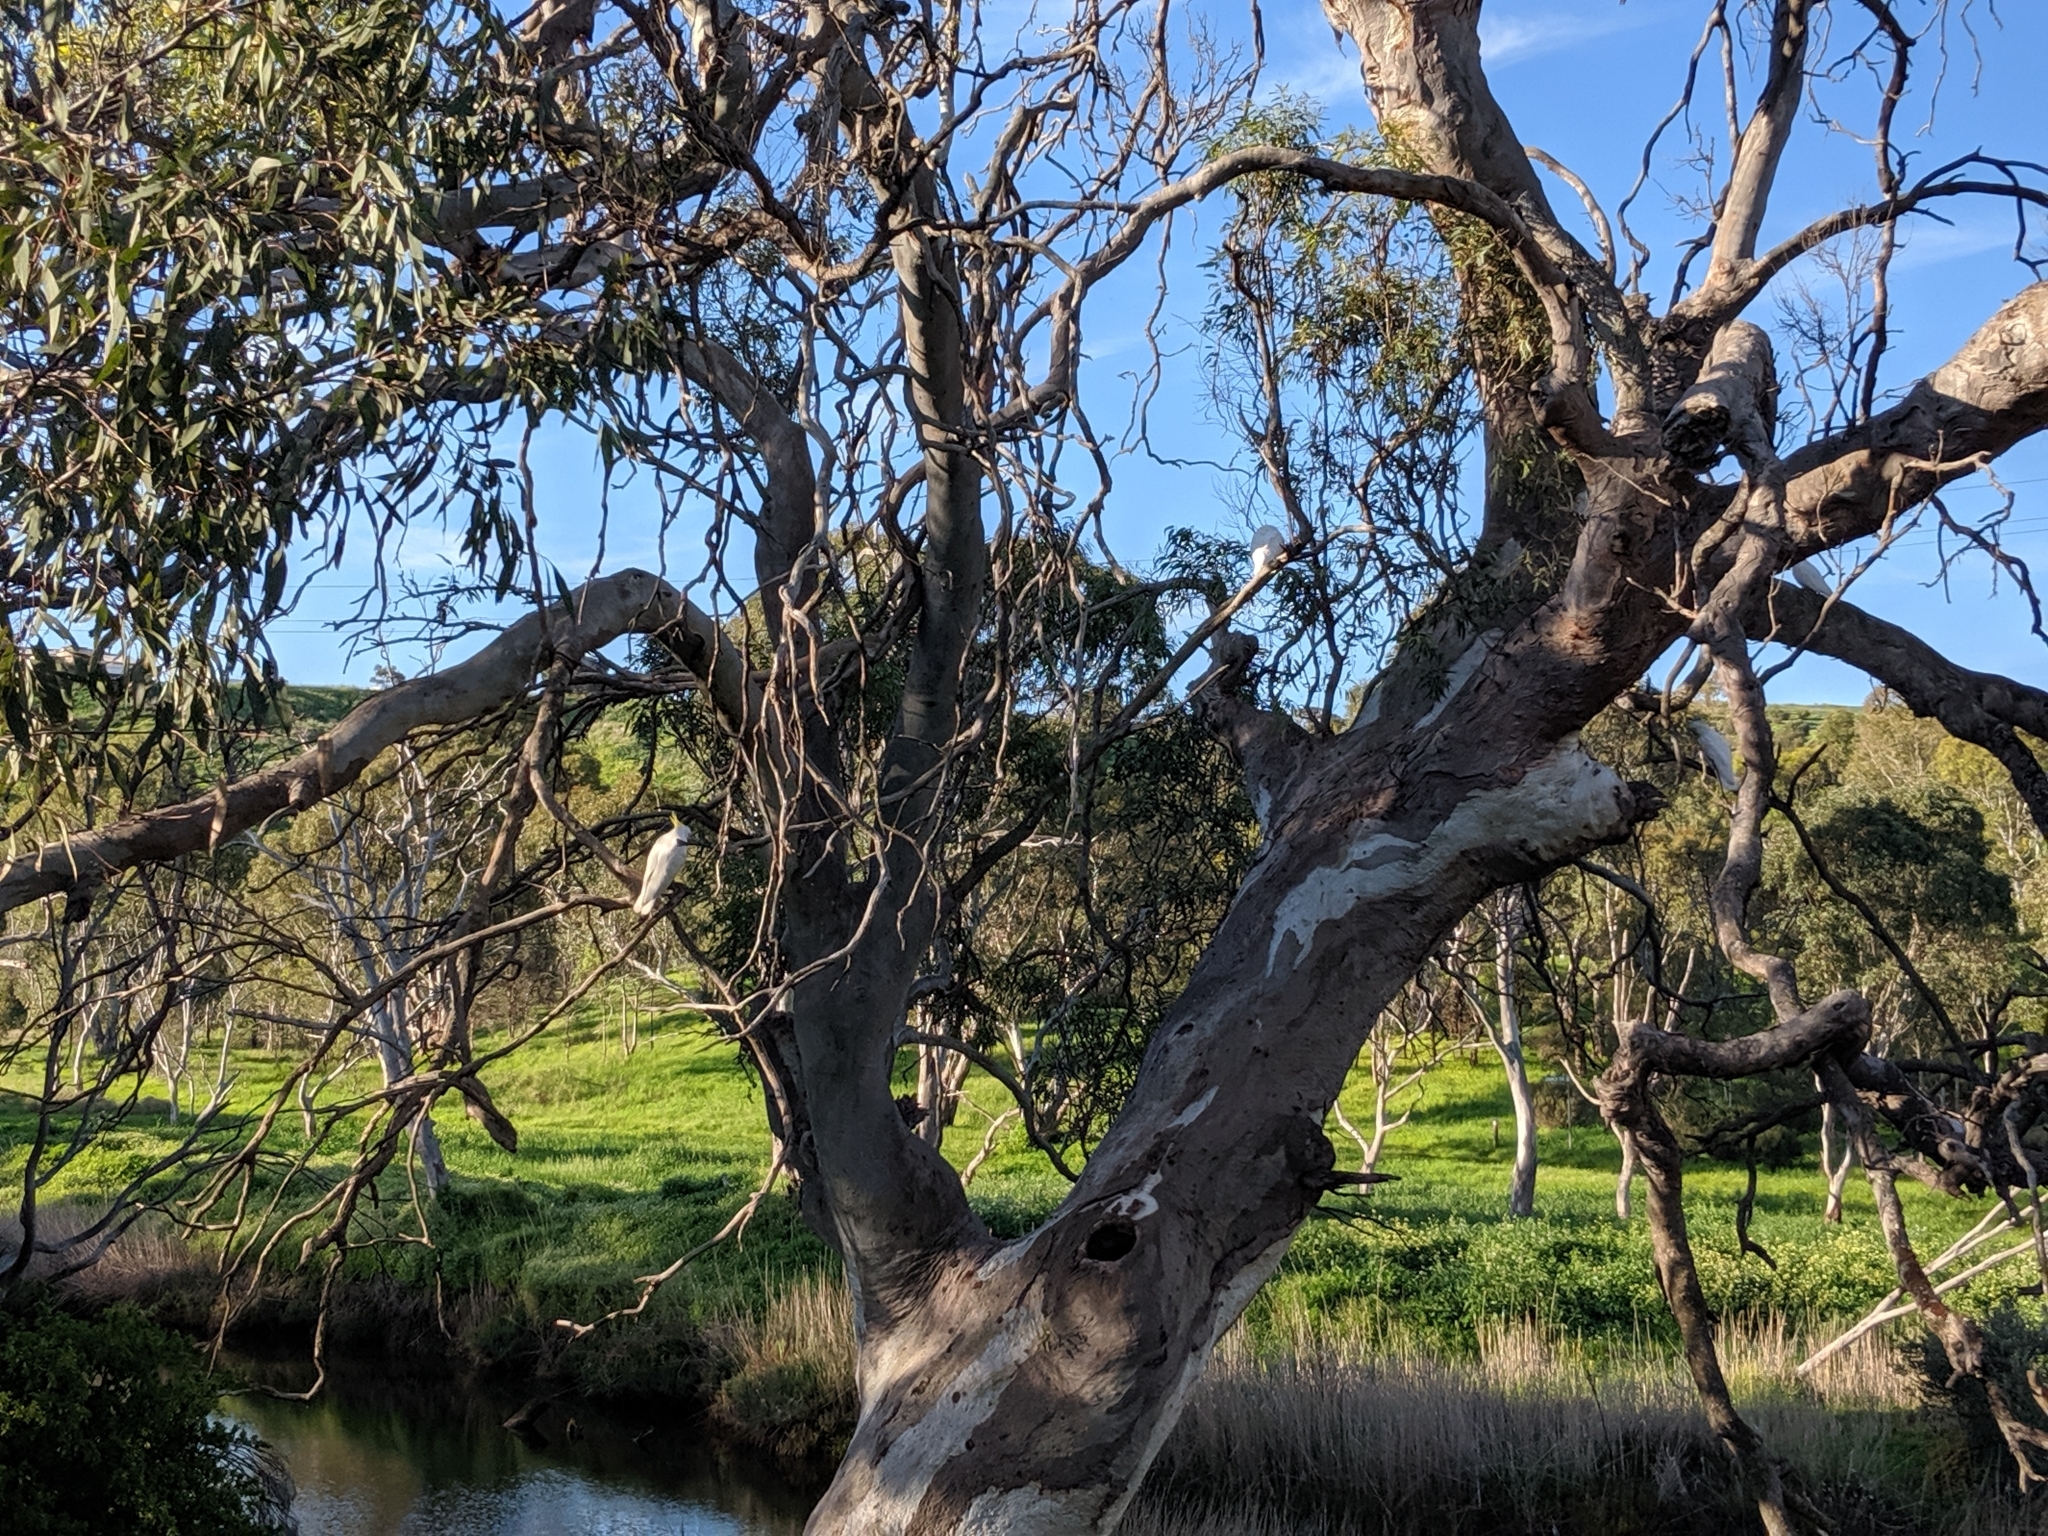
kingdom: Animalia
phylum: Chordata
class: Aves
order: Psittaciformes
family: Psittacidae
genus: Cacatua
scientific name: Cacatua galerita
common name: Sulphur-crested cockatoo
